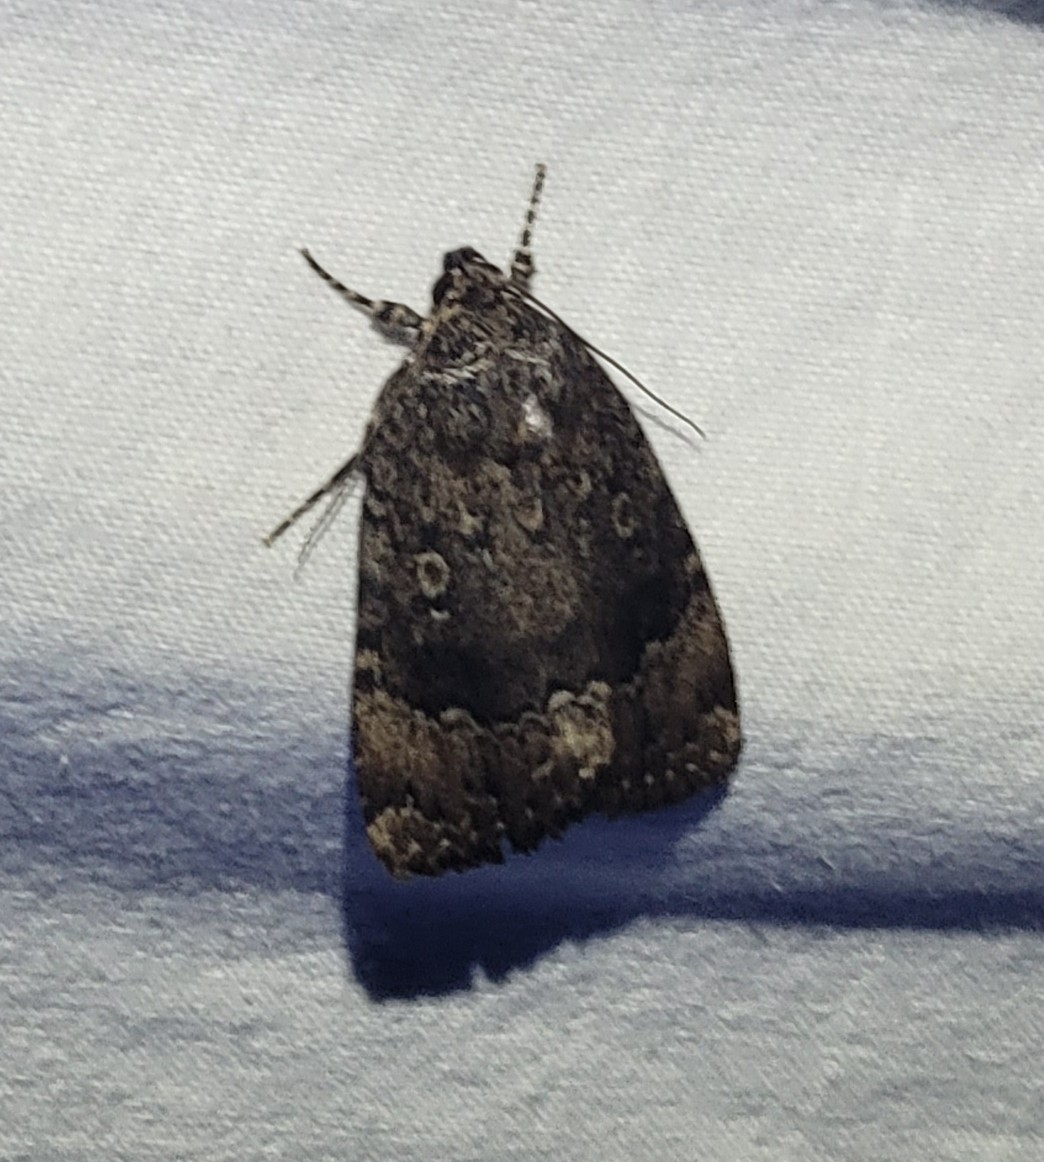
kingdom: Animalia
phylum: Arthropoda
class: Insecta
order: Lepidoptera
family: Noctuidae
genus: Amphipyra
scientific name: Amphipyra pyramidoides
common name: American copper underwing
